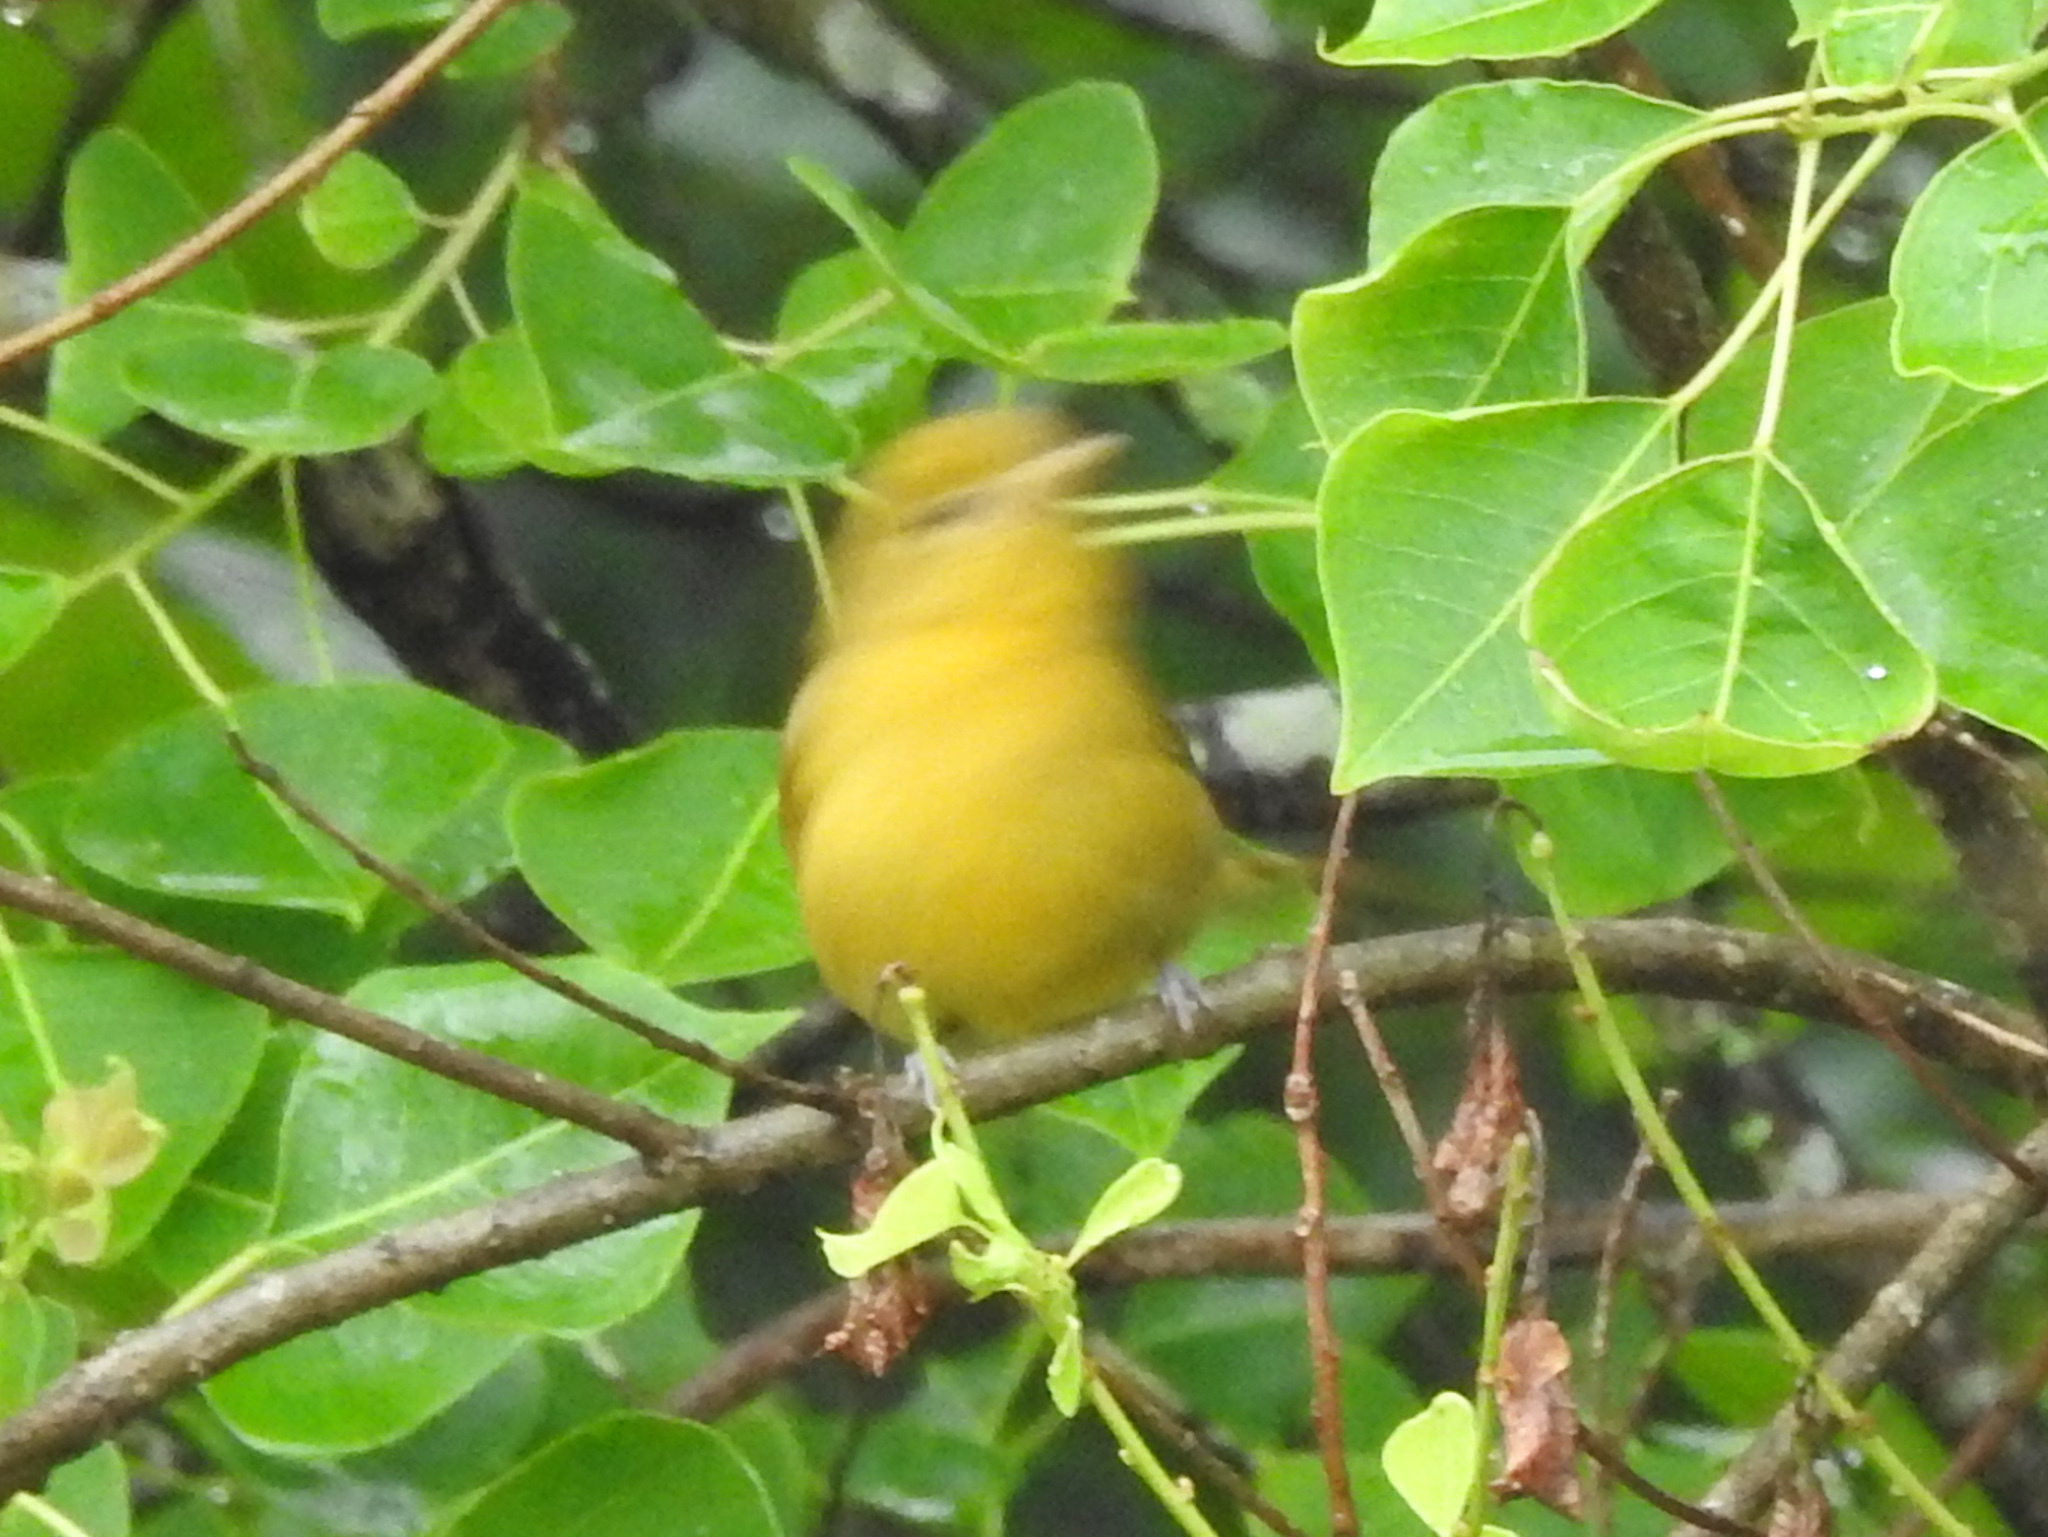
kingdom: Animalia
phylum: Chordata
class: Aves
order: Passeriformes
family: Cardinalidae
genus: Piranga
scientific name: Piranga rubra
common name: Summer tanager
